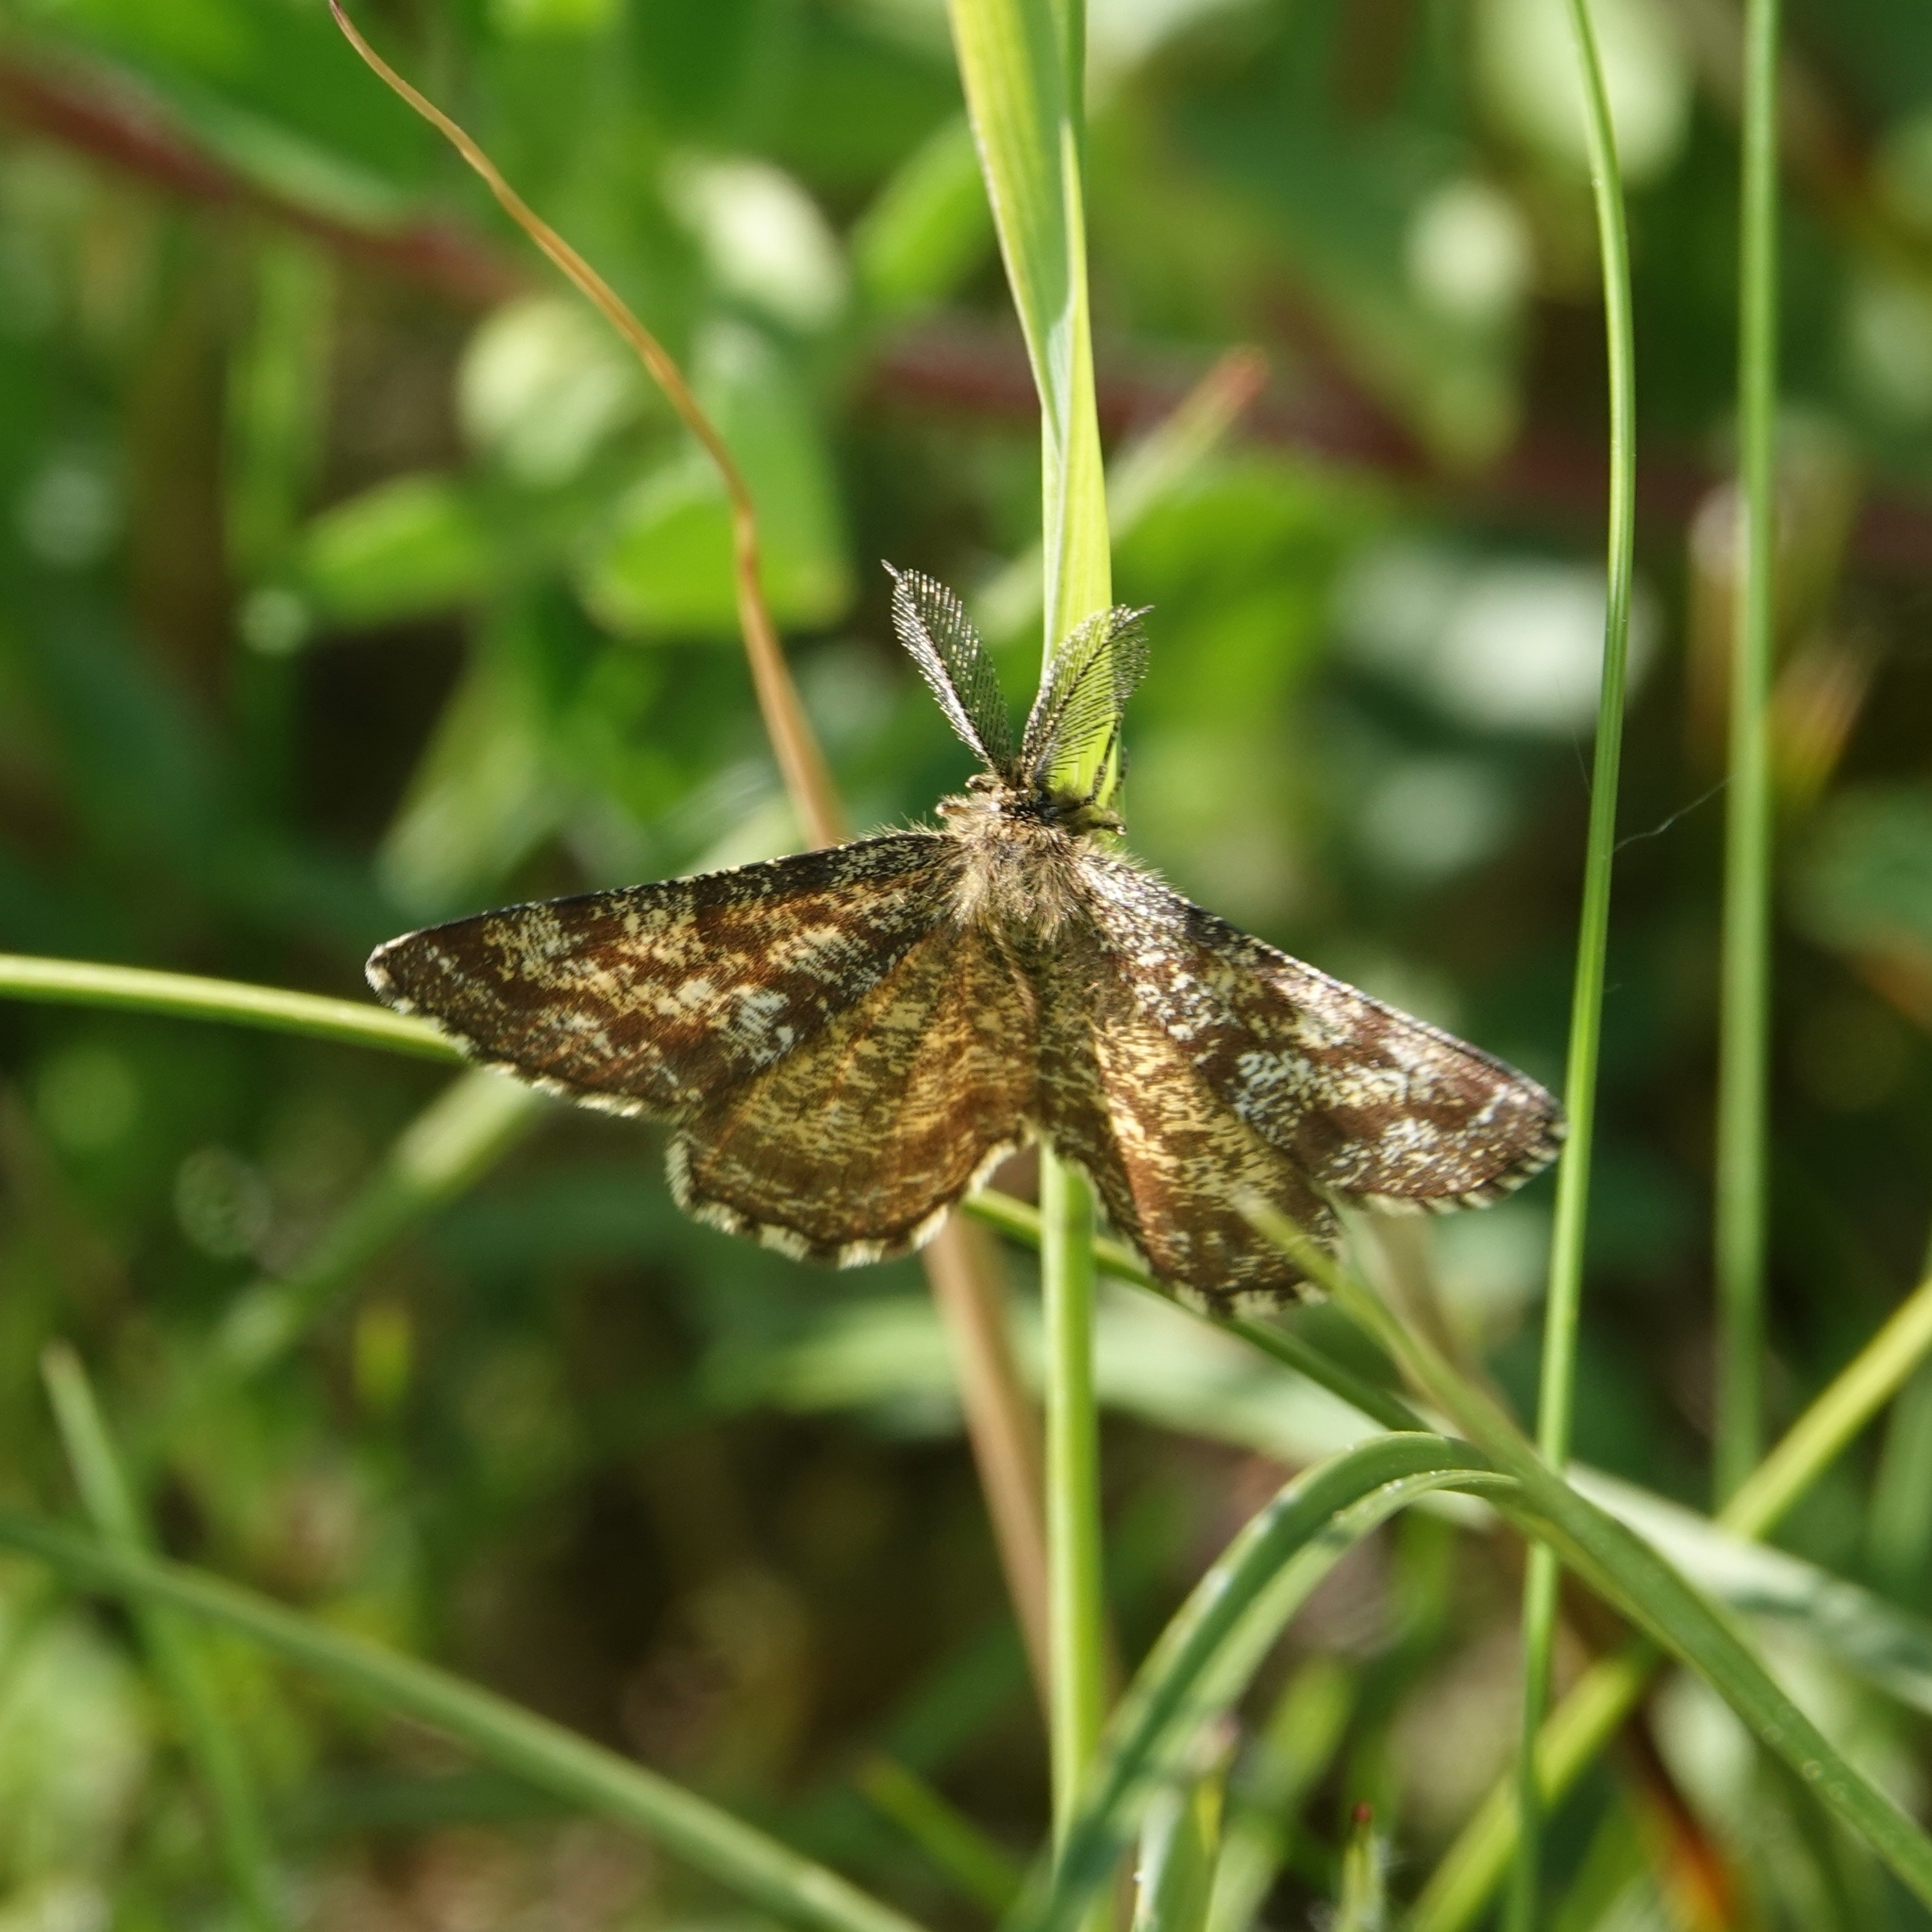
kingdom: Animalia
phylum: Arthropoda
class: Insecta
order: Lepidoptera
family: Geometridae
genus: Ematurga
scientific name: Ematurga atomaria
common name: Common heath
